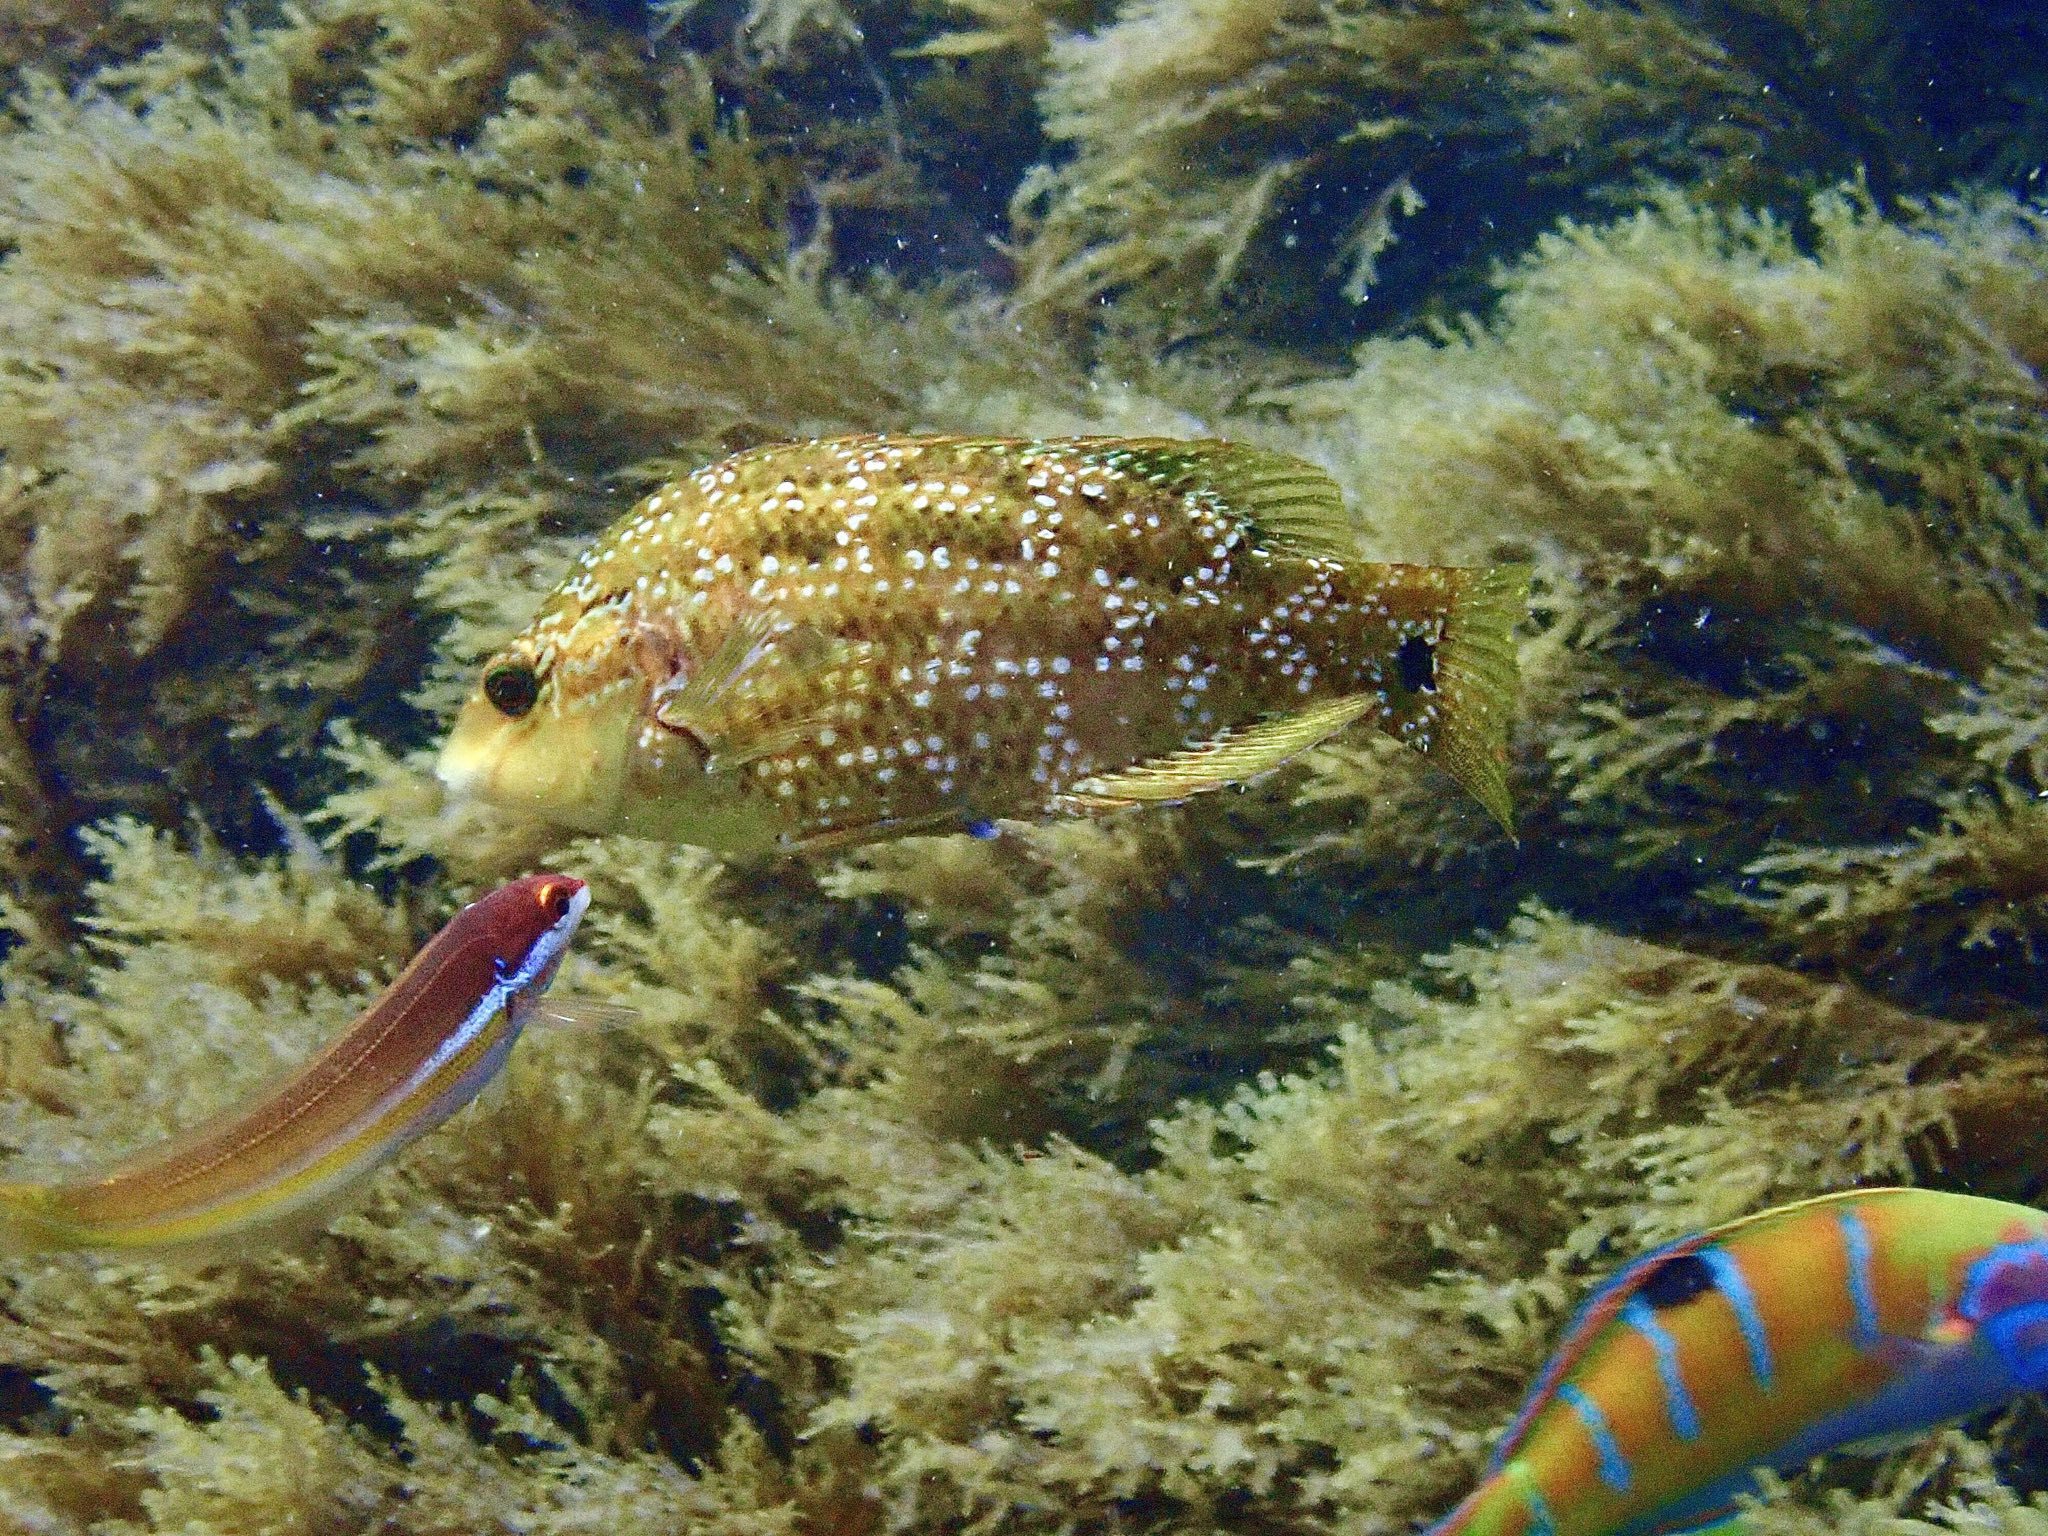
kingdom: Animalia
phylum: Chordata
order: Perciformes
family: Labridae
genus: Symphodus
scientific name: Symphodus caeruleus
